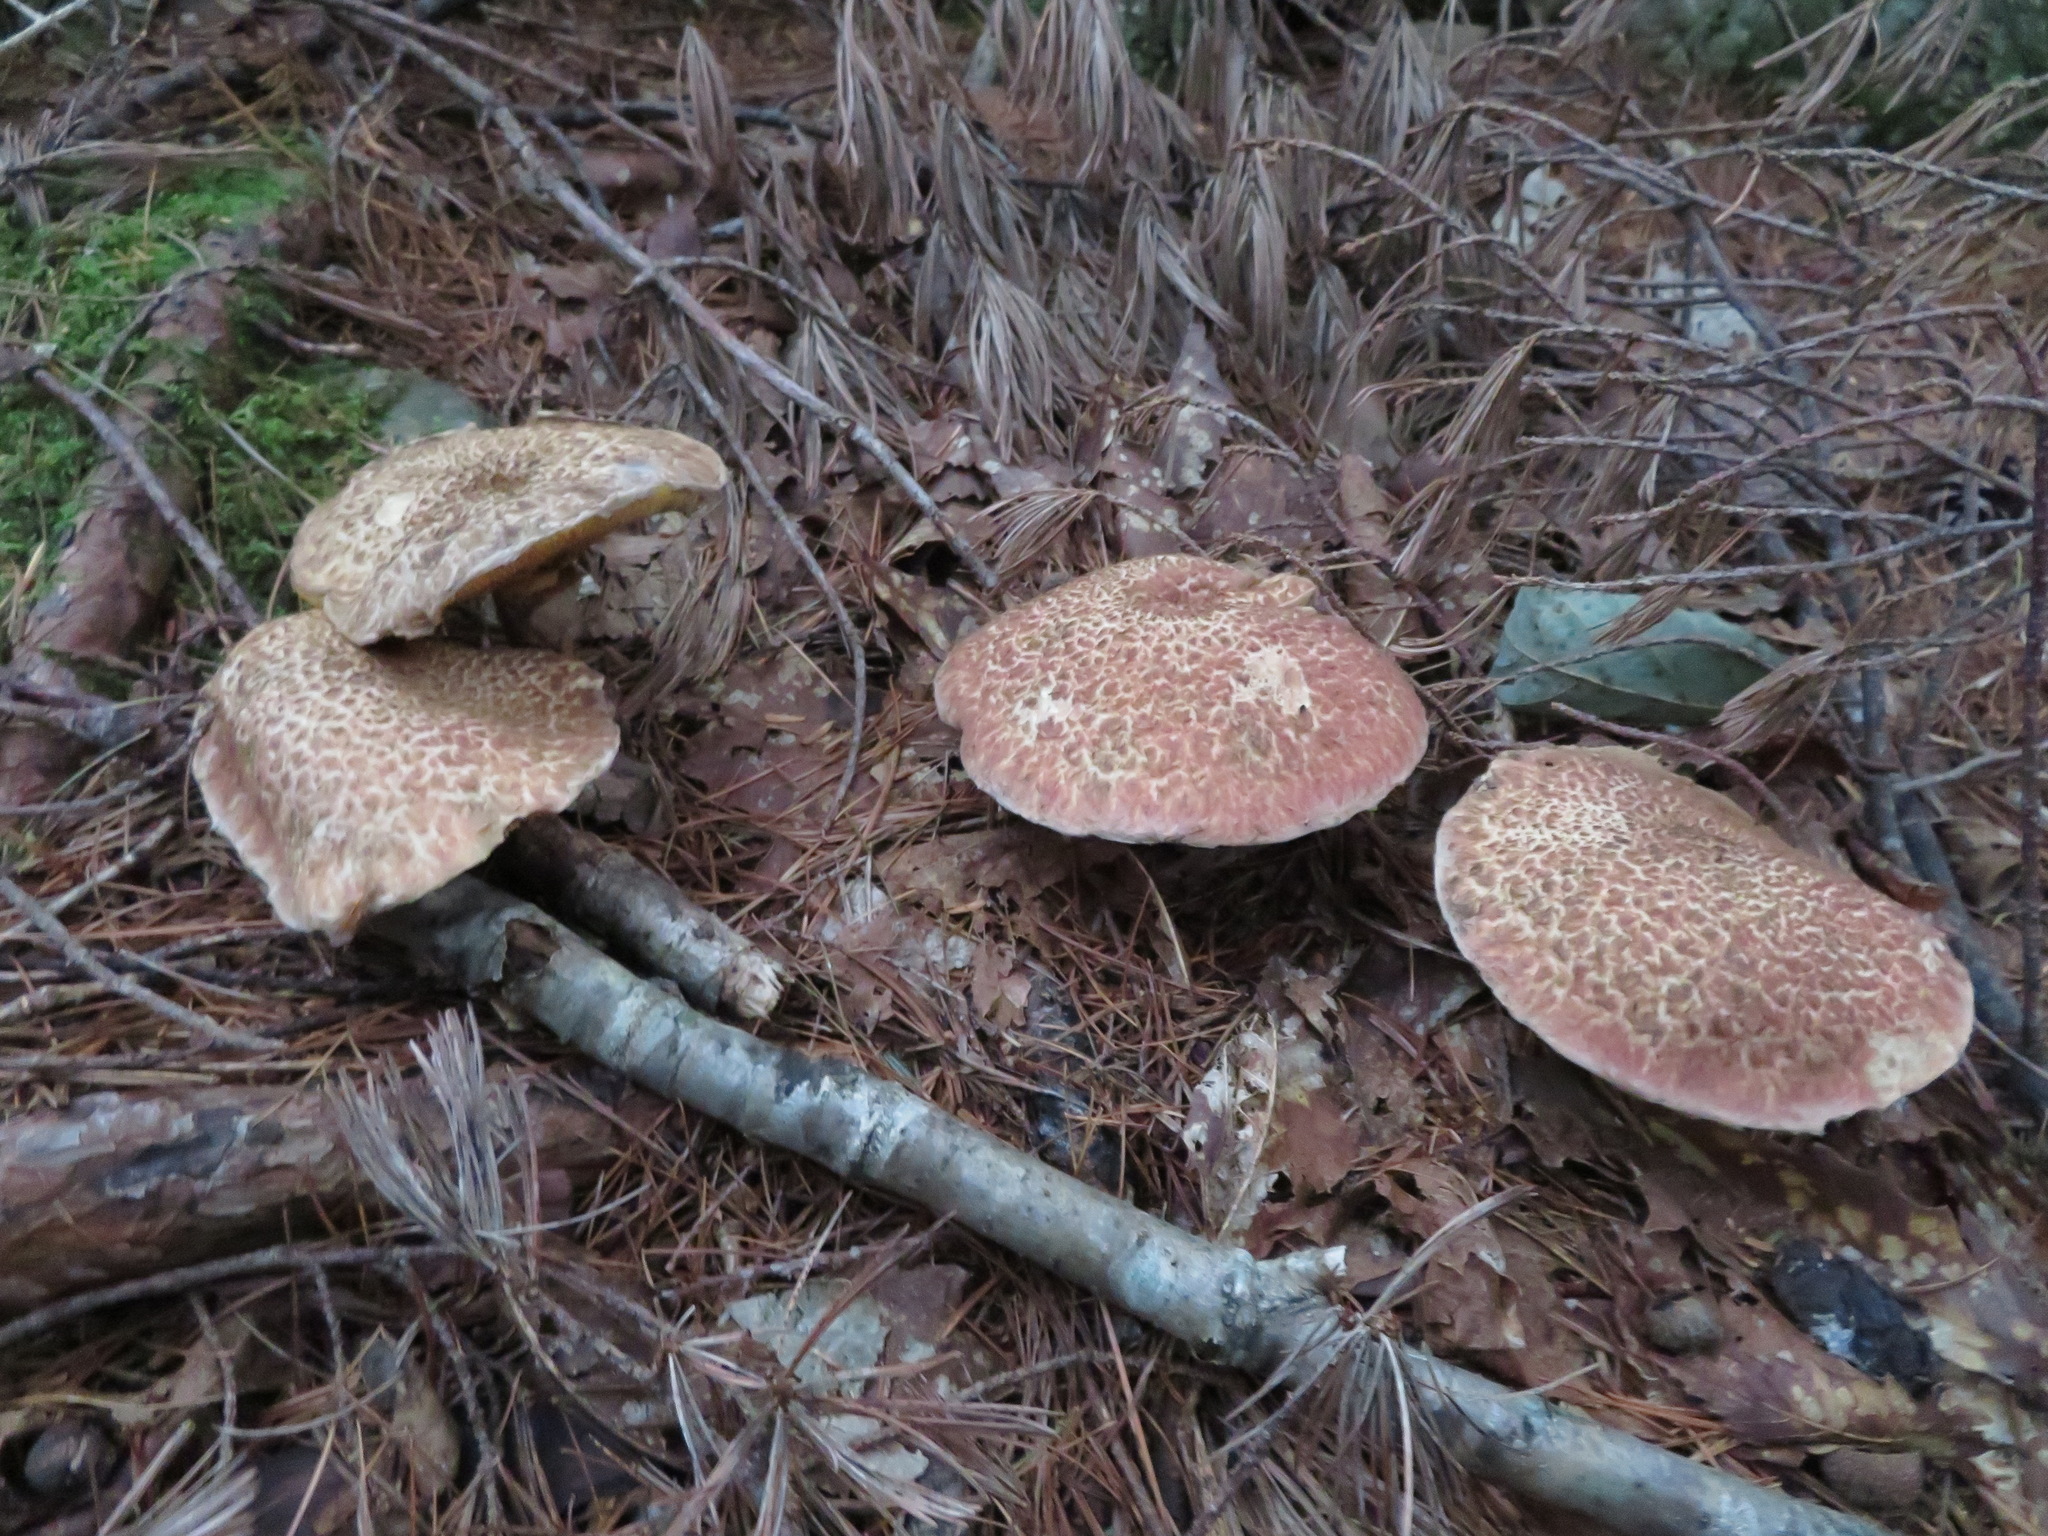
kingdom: Fungi
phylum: Basidiomycota
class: Agaricomycetes
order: Boletales
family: Suillaceae
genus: Suillus
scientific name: Suillus spraguei
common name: Painted suillus
